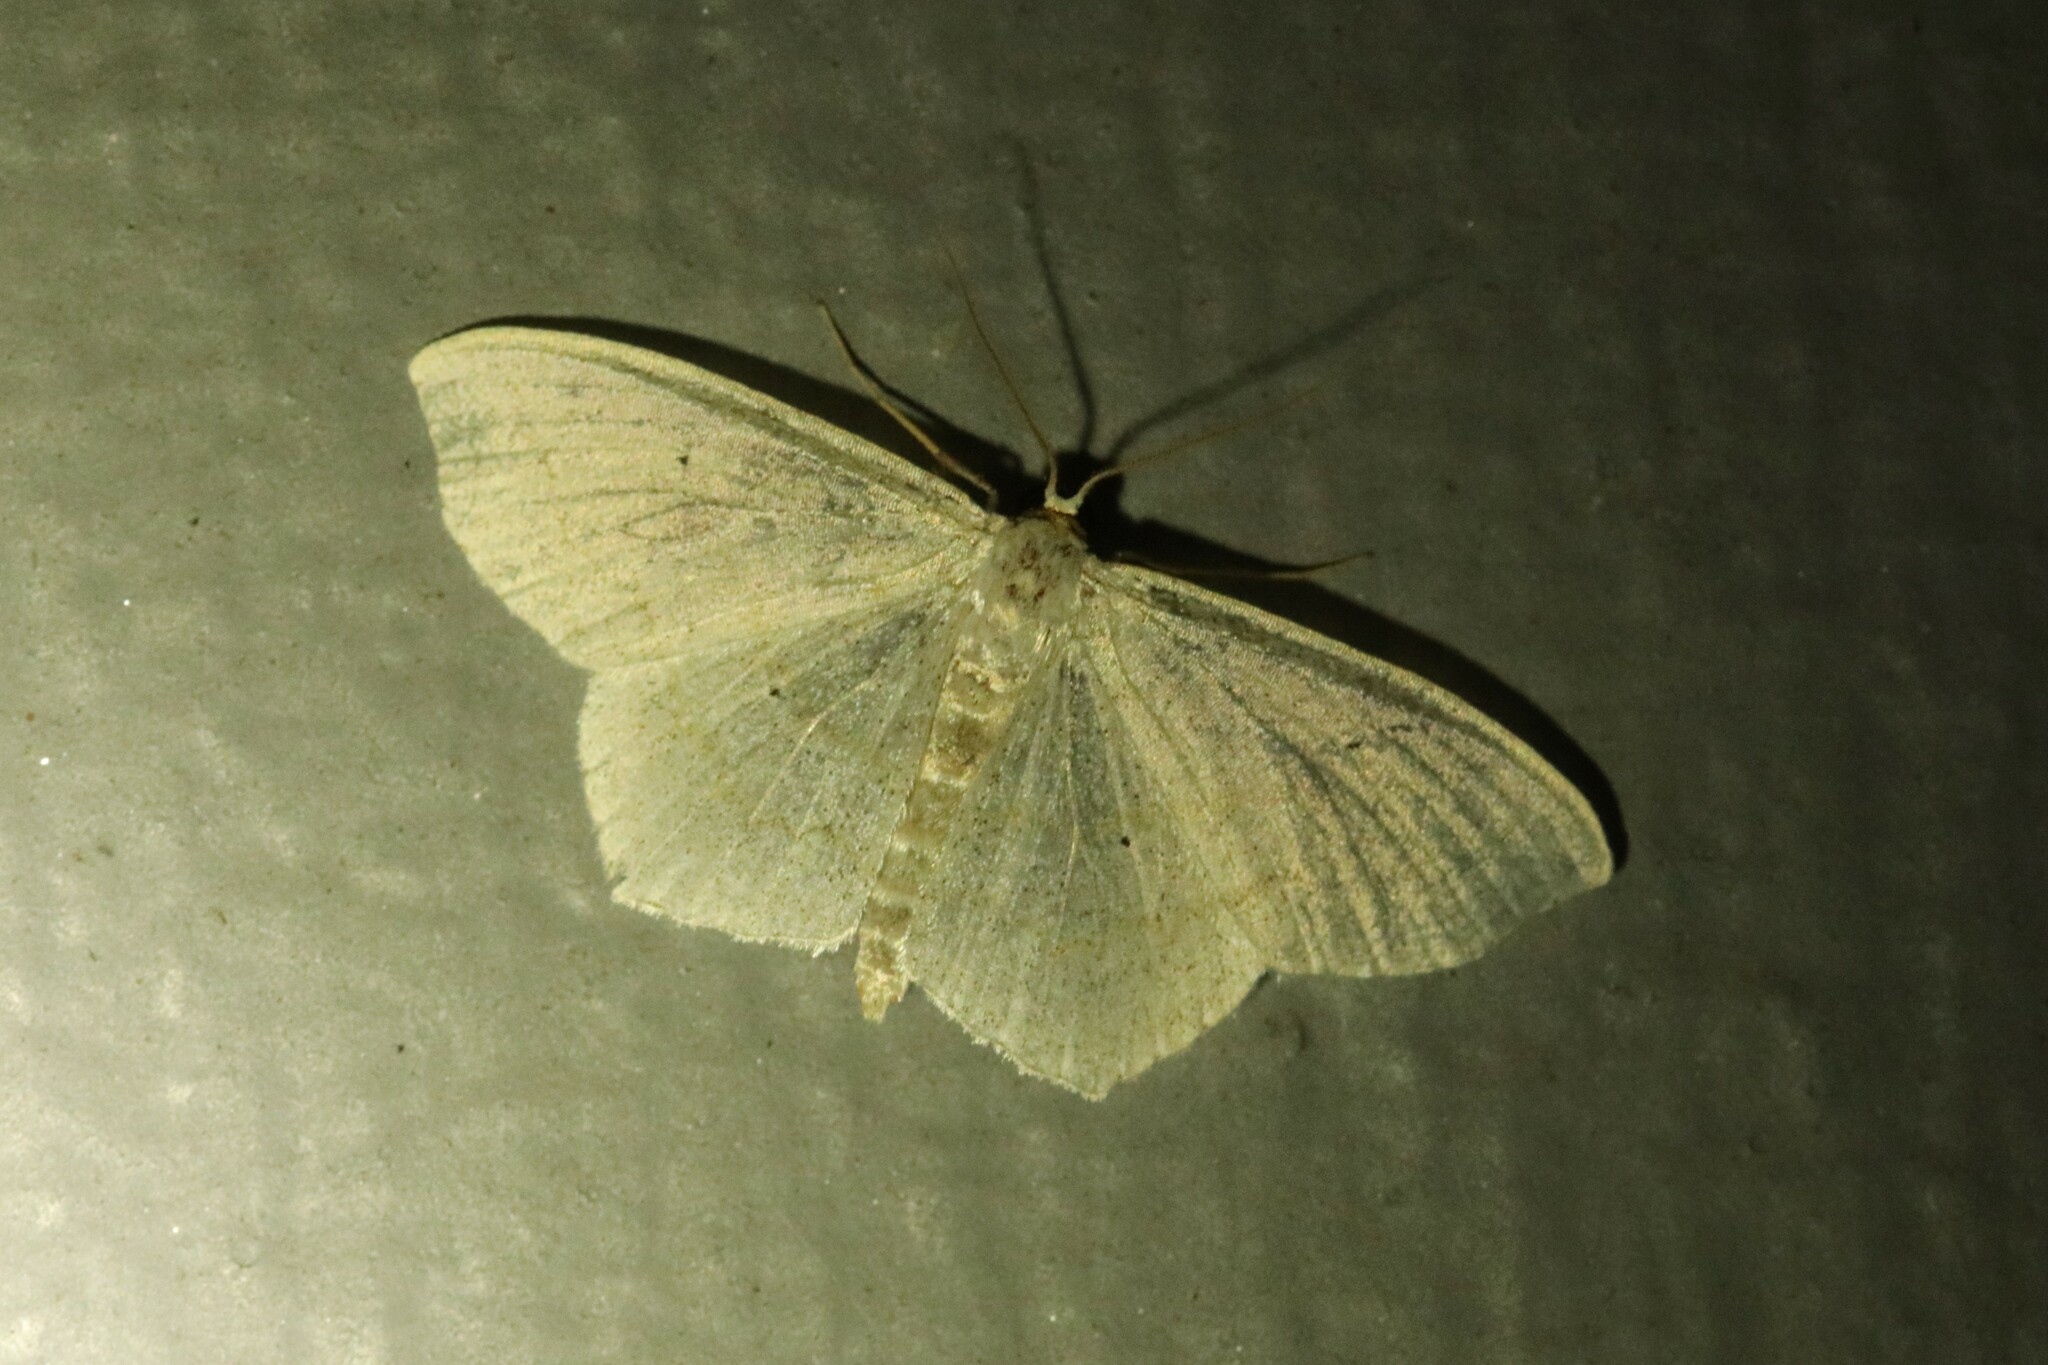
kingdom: Animalia
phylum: Arthropoda
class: Insecta
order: Lepidoptera
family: Geometridae
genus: Pleuroprucha
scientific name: Pleuroprucha insulsaria
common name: Common tan wave
